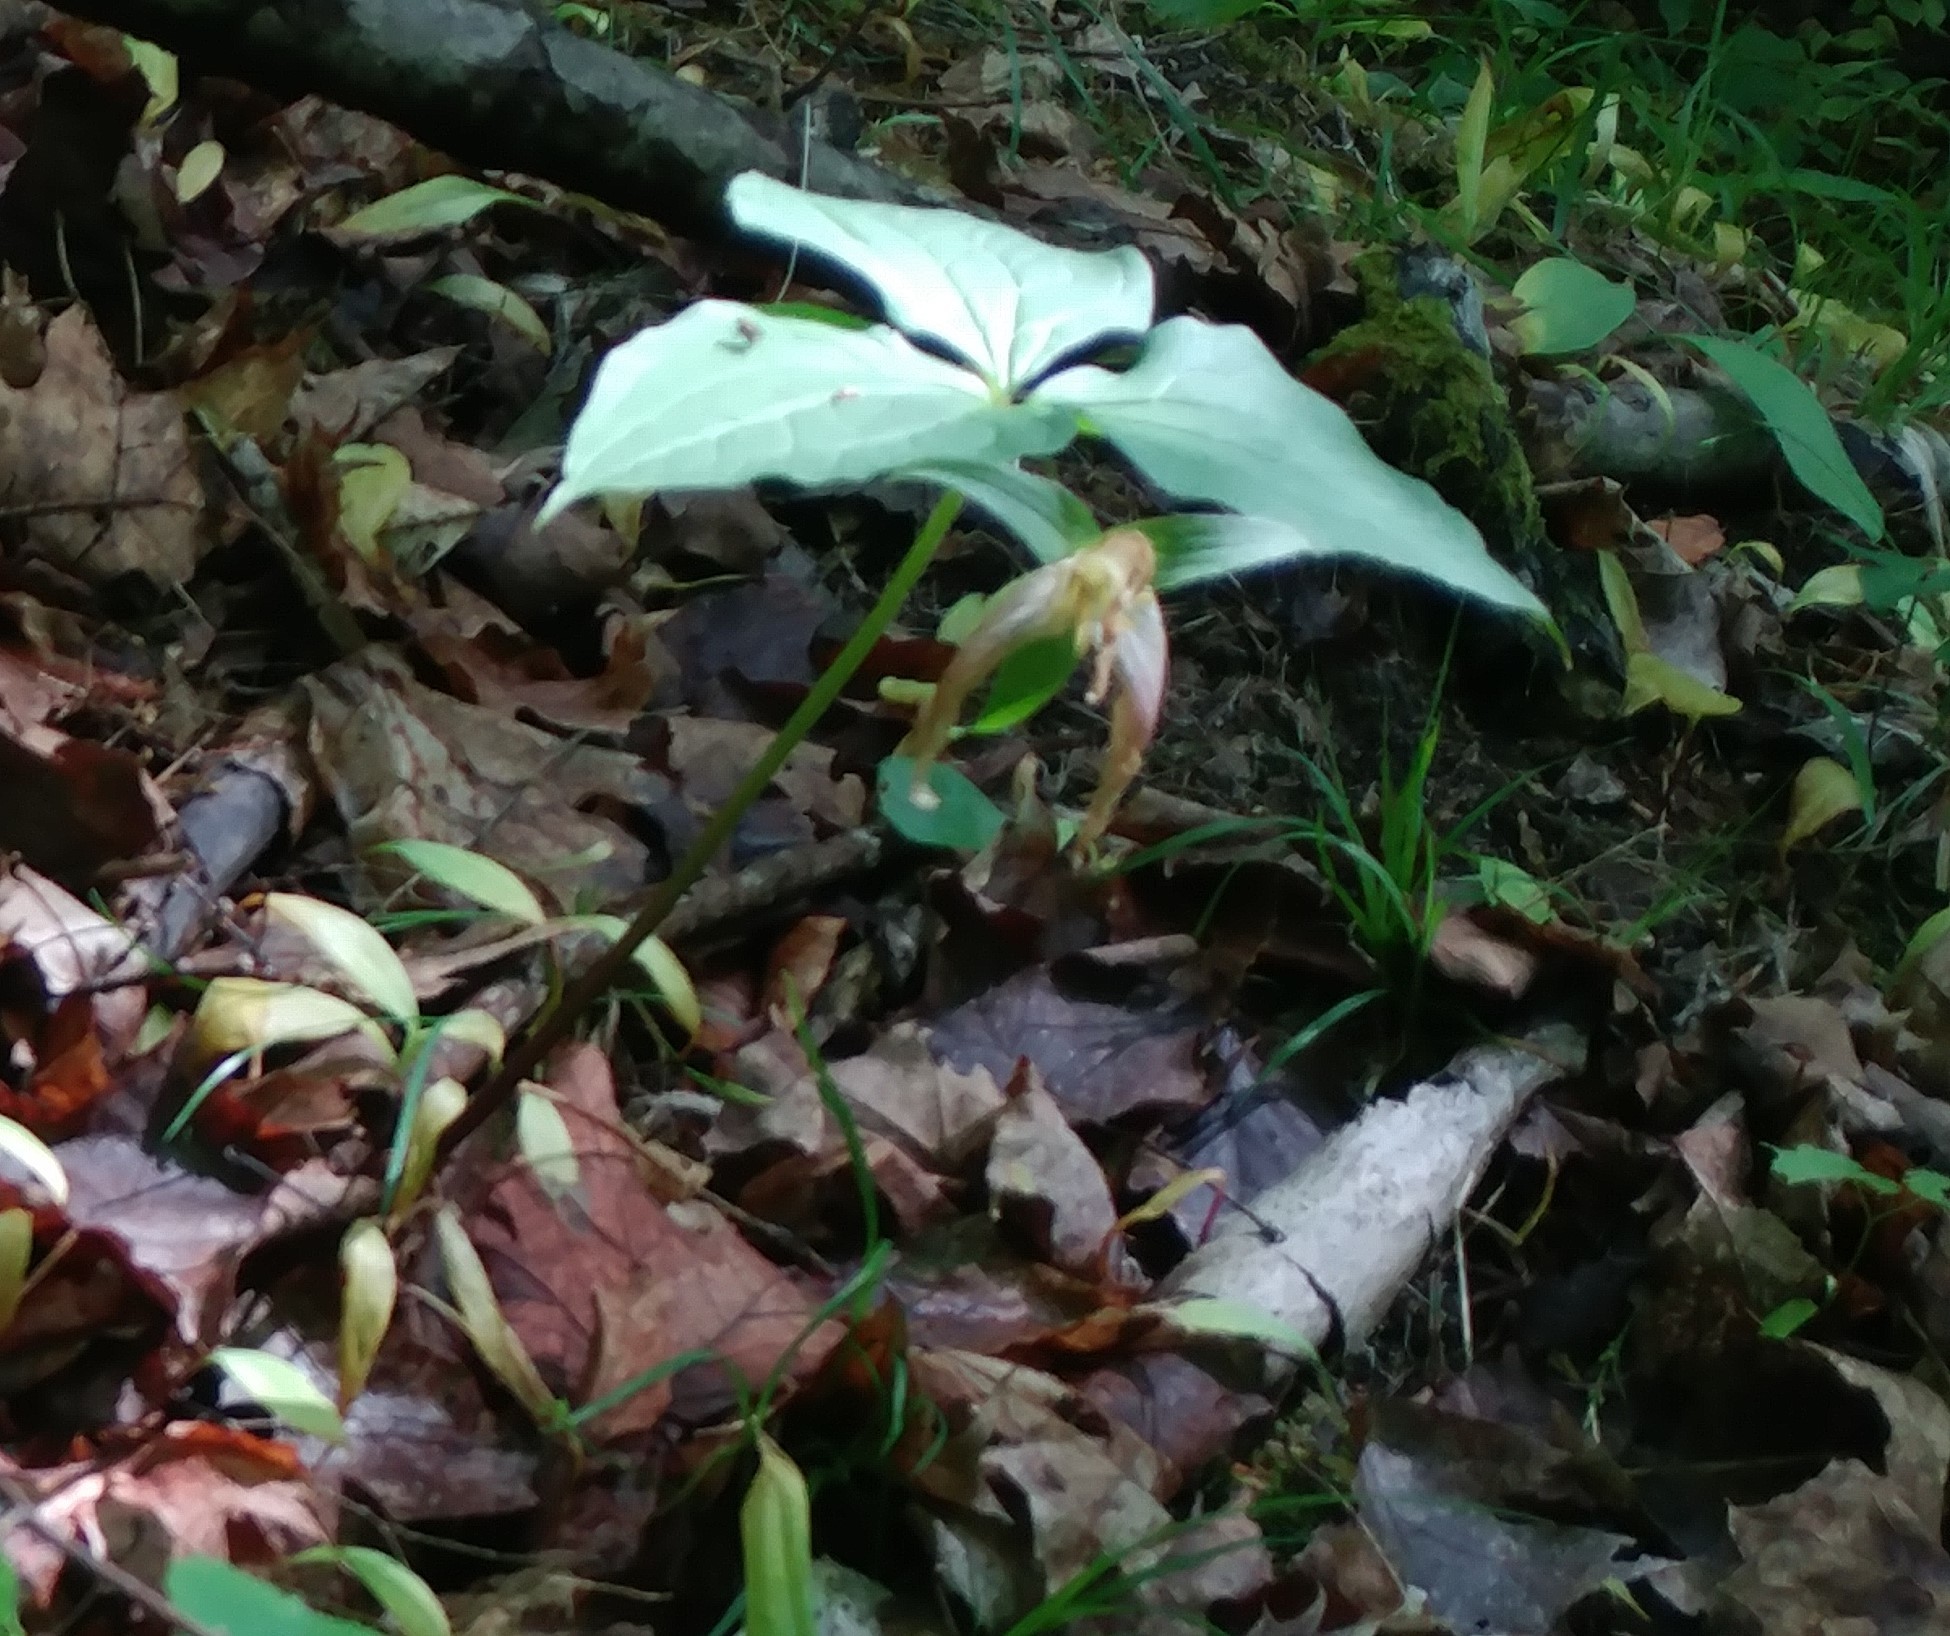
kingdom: Plantae
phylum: Tracheophyta
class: Liliopsida
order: Liliales
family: Melanthiaceae
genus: Trillium
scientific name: Trillium grandiflorum
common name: Great white trillium
